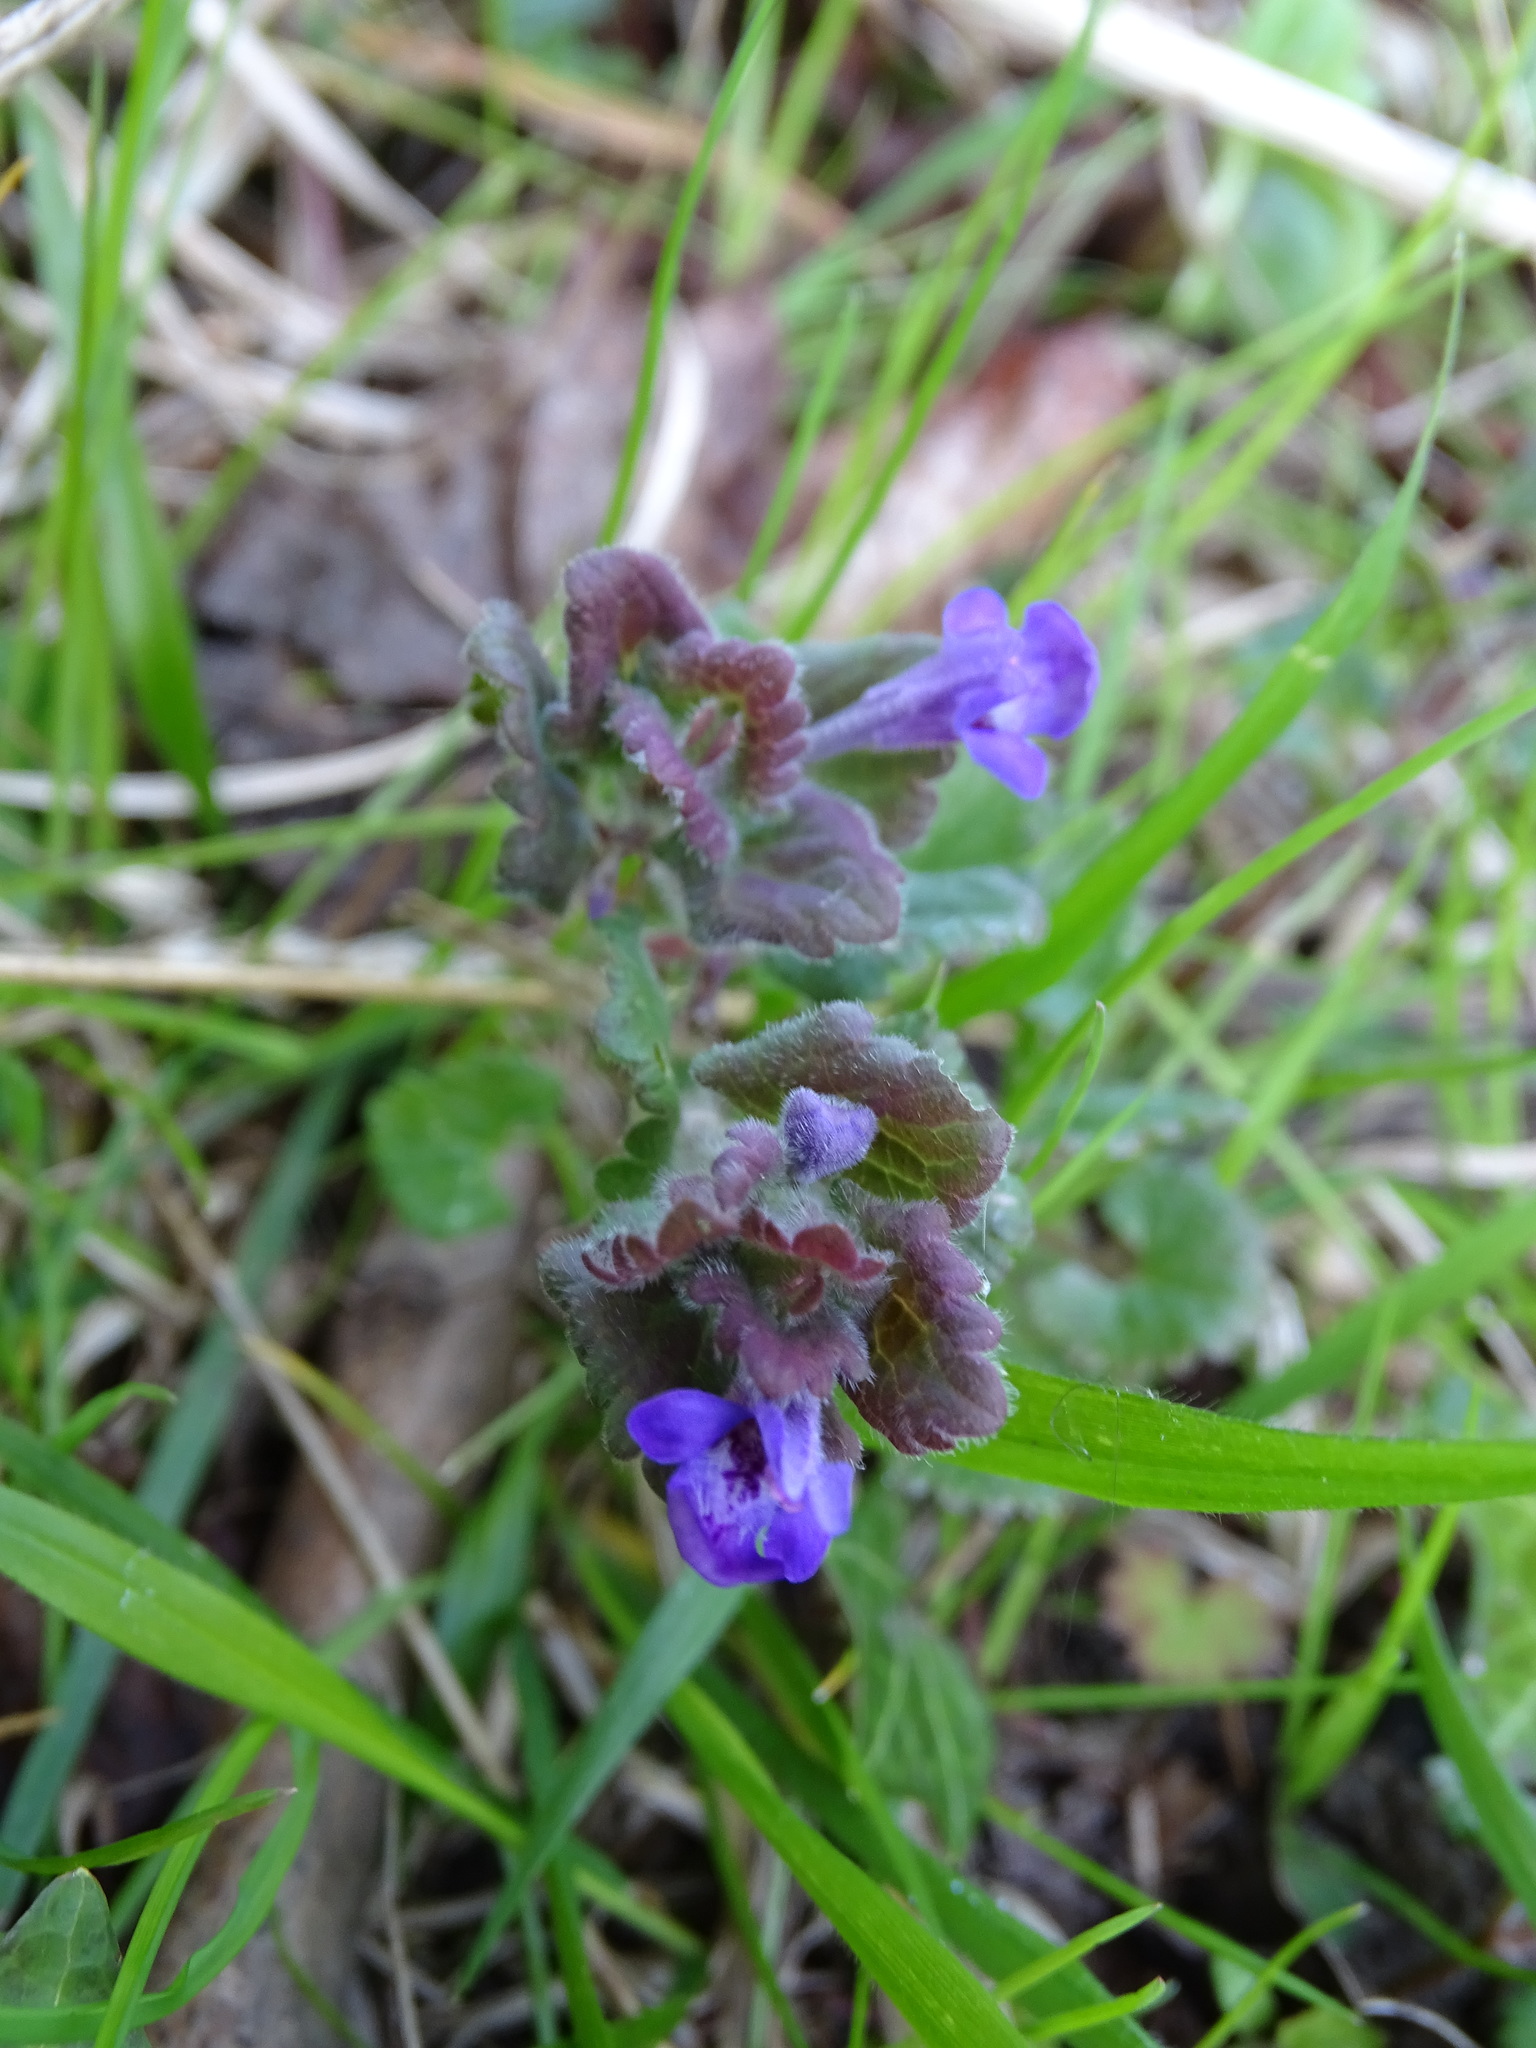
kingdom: Plantae
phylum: Tracheophyta
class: Magnoliopsida
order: Lamiales
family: Lamiaceae
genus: Glechoma
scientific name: Glechoma hederacea
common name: Ground ivy
